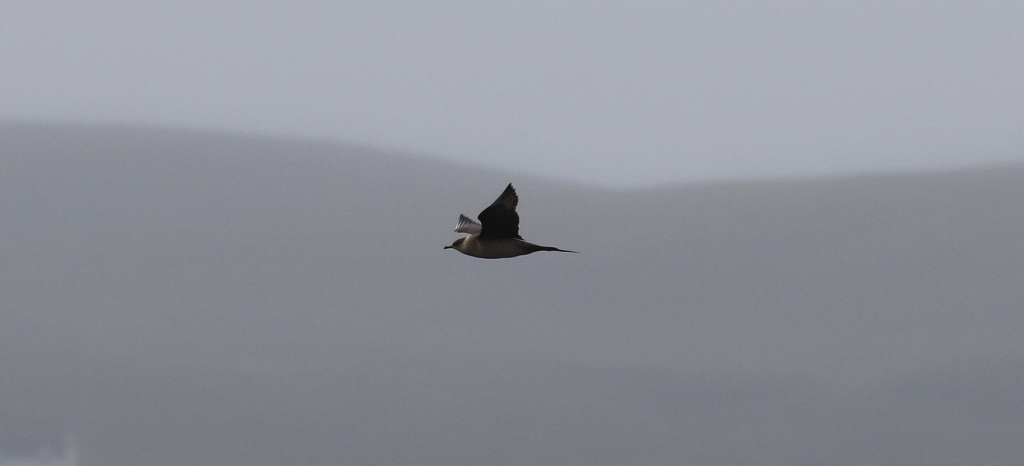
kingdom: Animalia
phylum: Chordata
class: Aves
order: Charadriiformes
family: Stercorariidae
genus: Stercorarius
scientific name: Stercorarius parasiticus
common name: Parasitic jaeger
